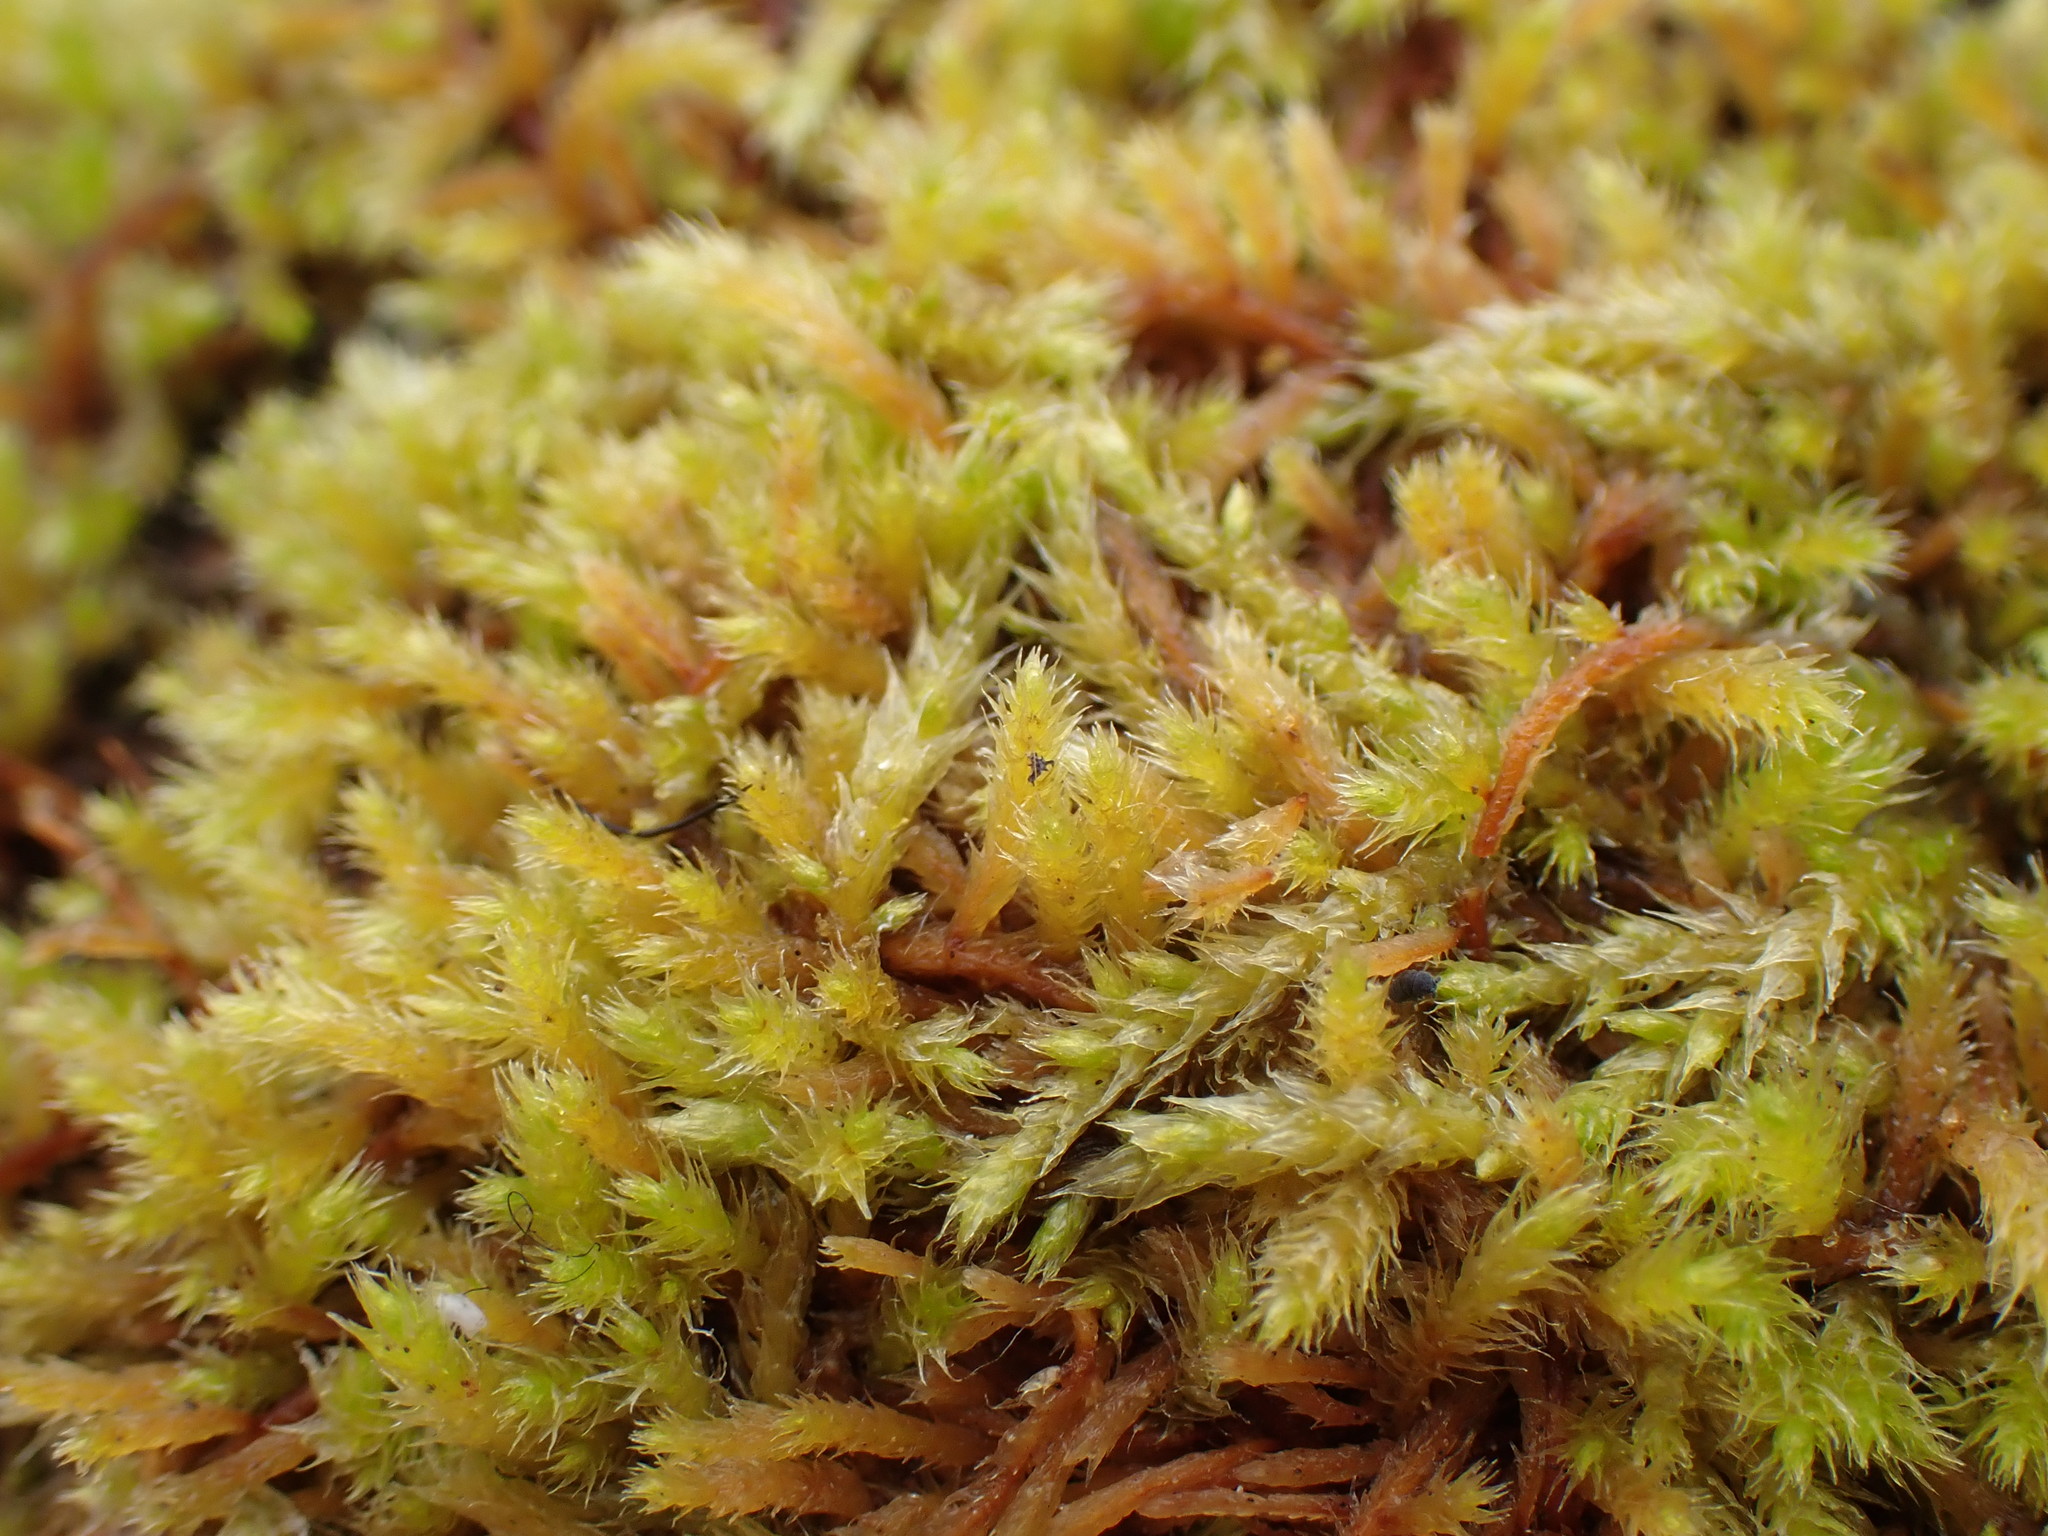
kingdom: Plantae
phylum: Bryophyta
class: Bryopsida
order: Hypnales
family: Pseudoleskeaceae
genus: Lescuraea
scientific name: Lescuraea radicosa
